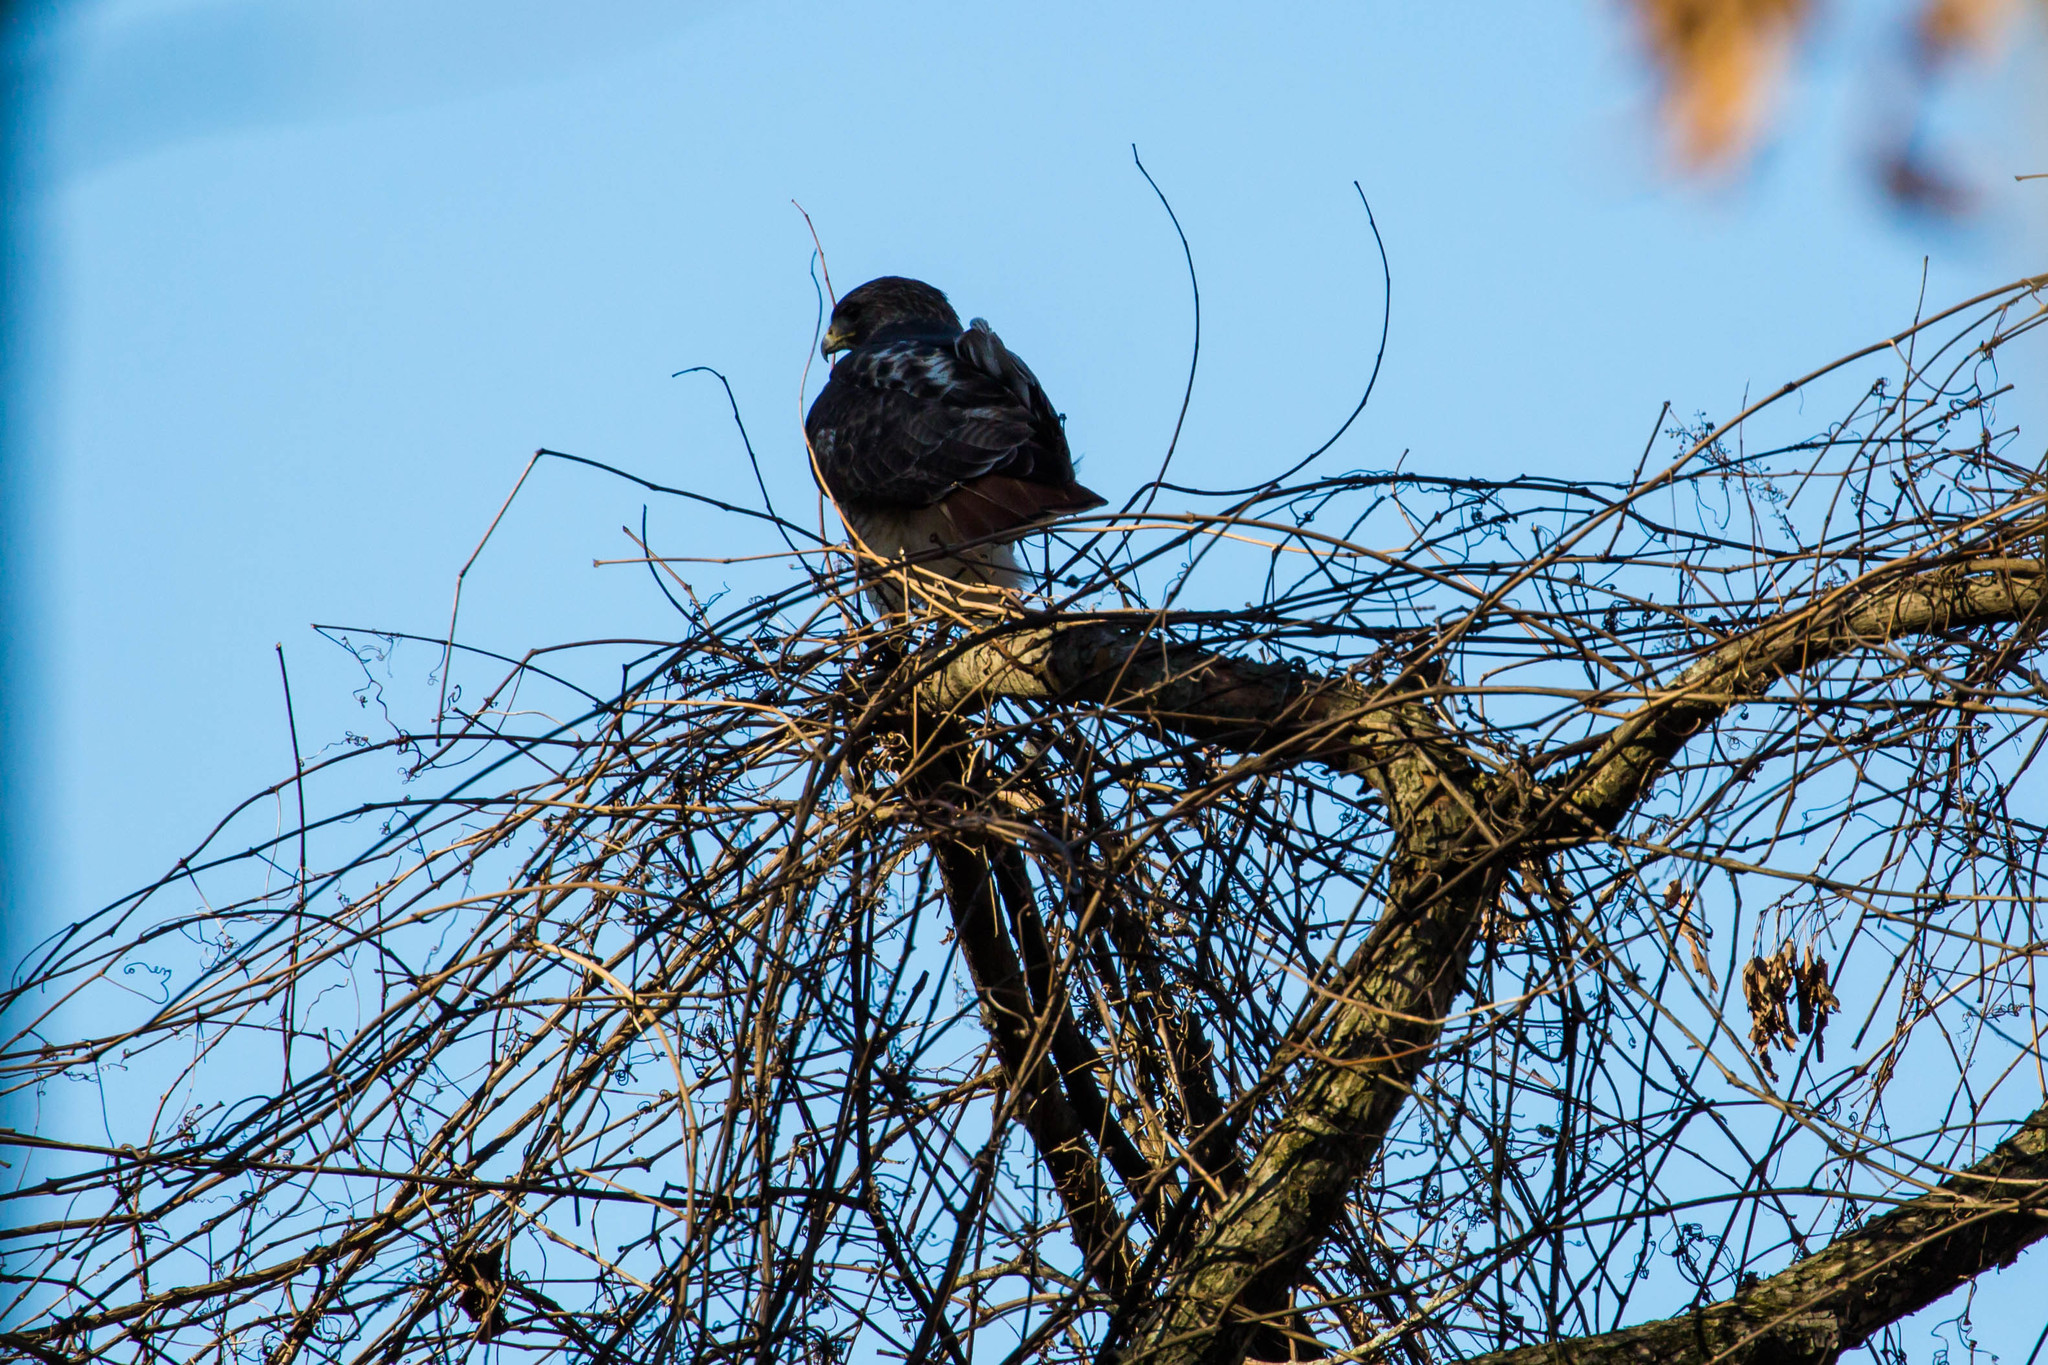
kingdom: Animalia
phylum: Chordata
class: Aves
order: Accipitriformes
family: Accipitridae
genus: Buteo
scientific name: Buteo jamaicensis
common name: Red-tailed hawk
